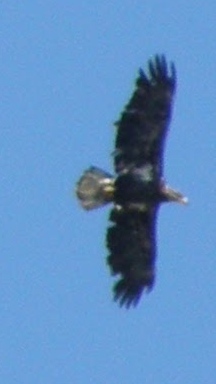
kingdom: Animalia
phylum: Chordata
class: Aves
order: Accipitriformes
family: Accipitridae
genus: Haliaeetus
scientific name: Haliaeetus leucocephalus
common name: Bald eagle
